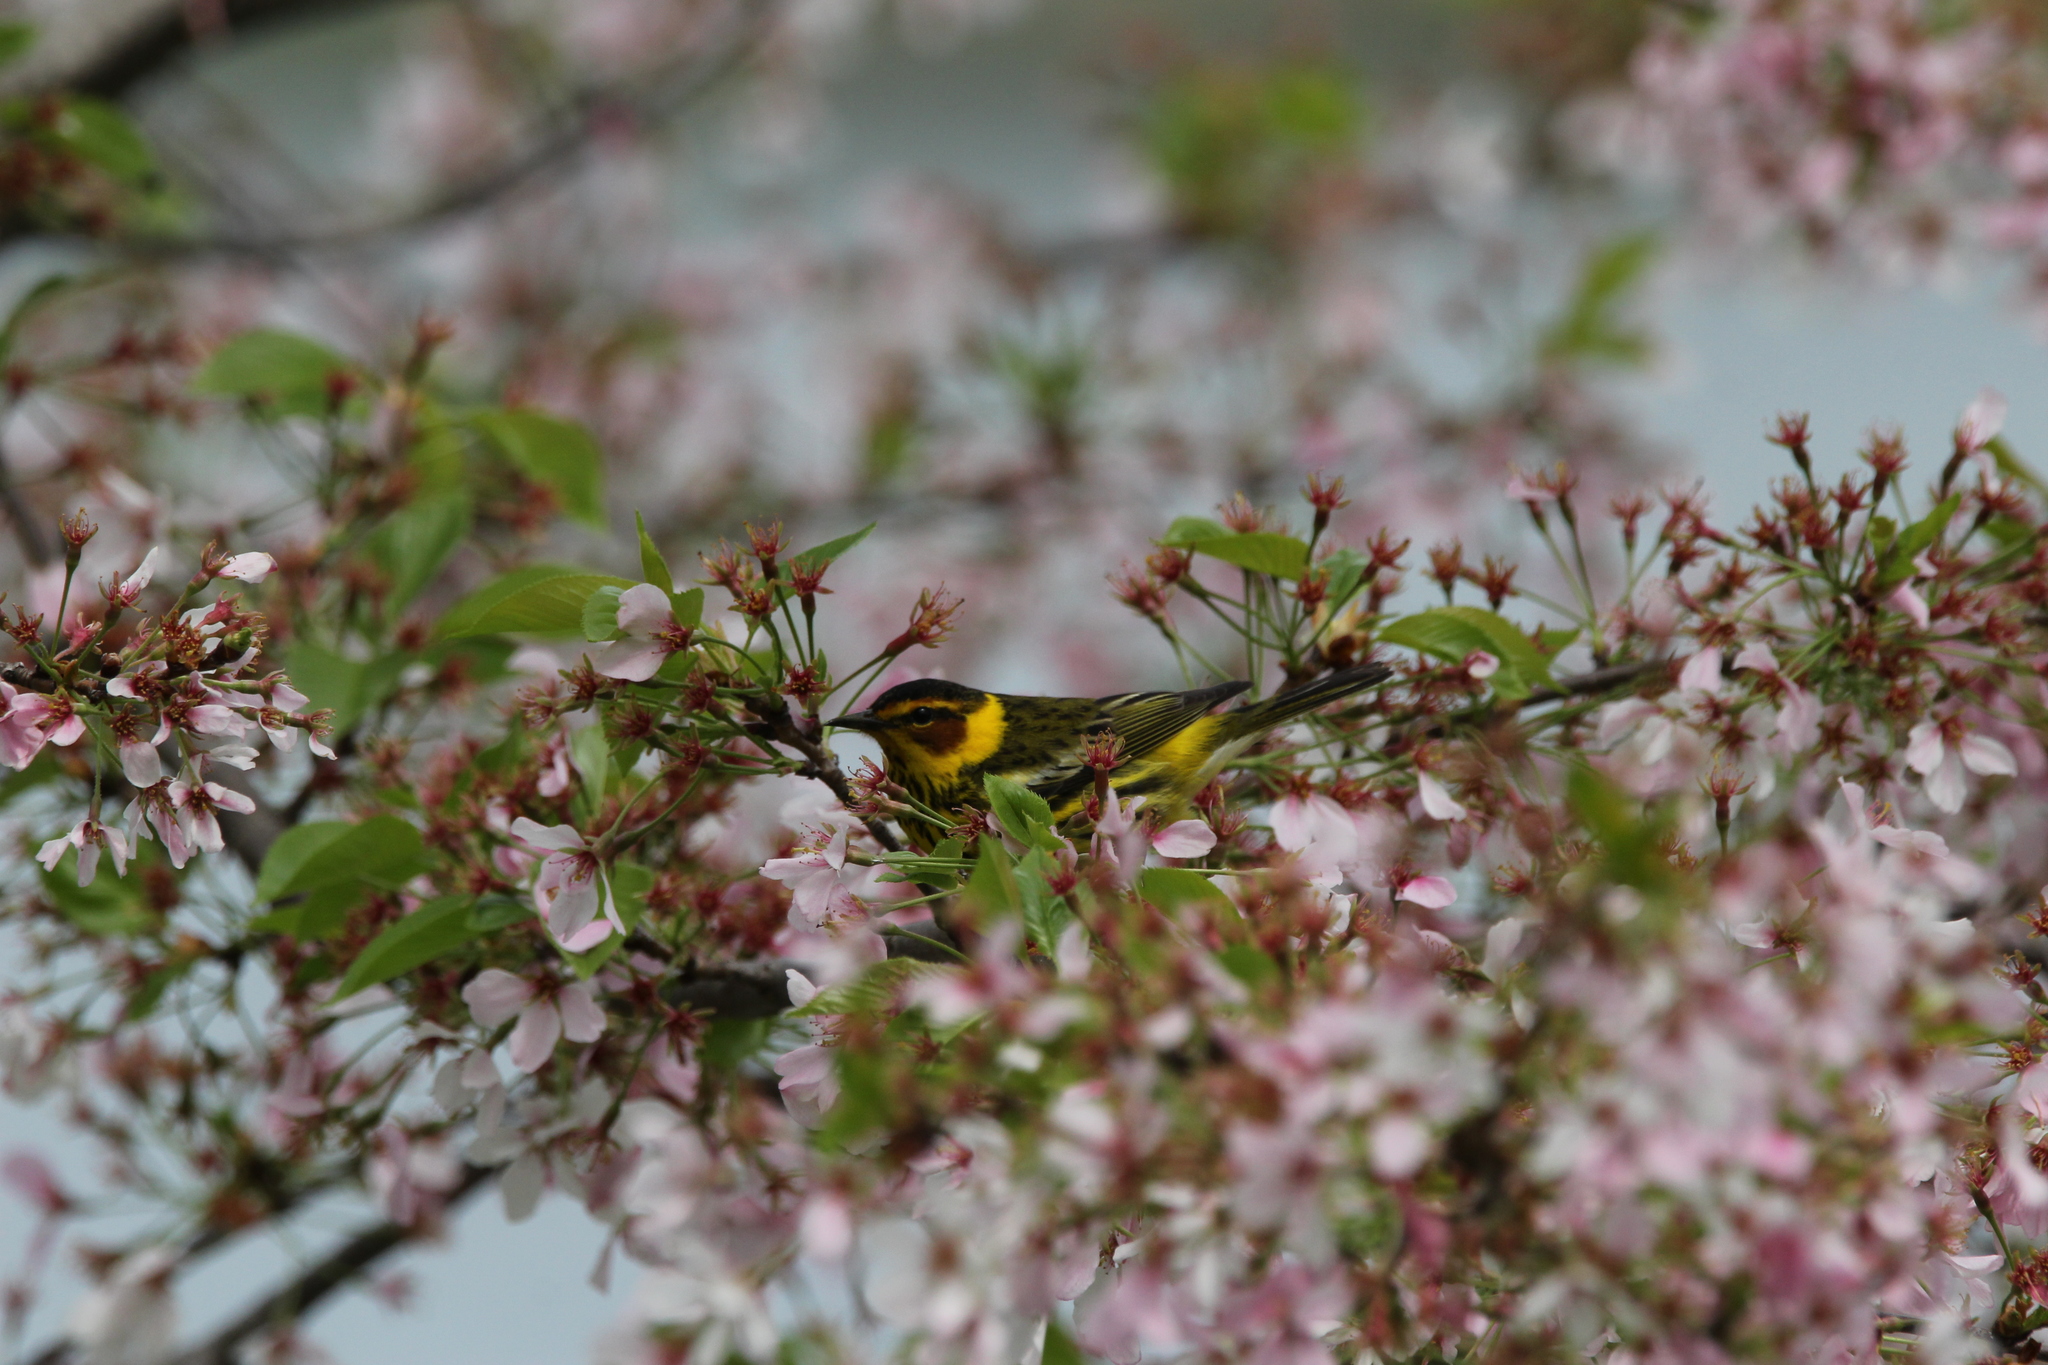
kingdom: Animalia
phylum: Chordata
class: Aves
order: Passeriformes
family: Parulidae
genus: Setophaga
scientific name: Setophaga tigrina
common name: Cape may warbler
